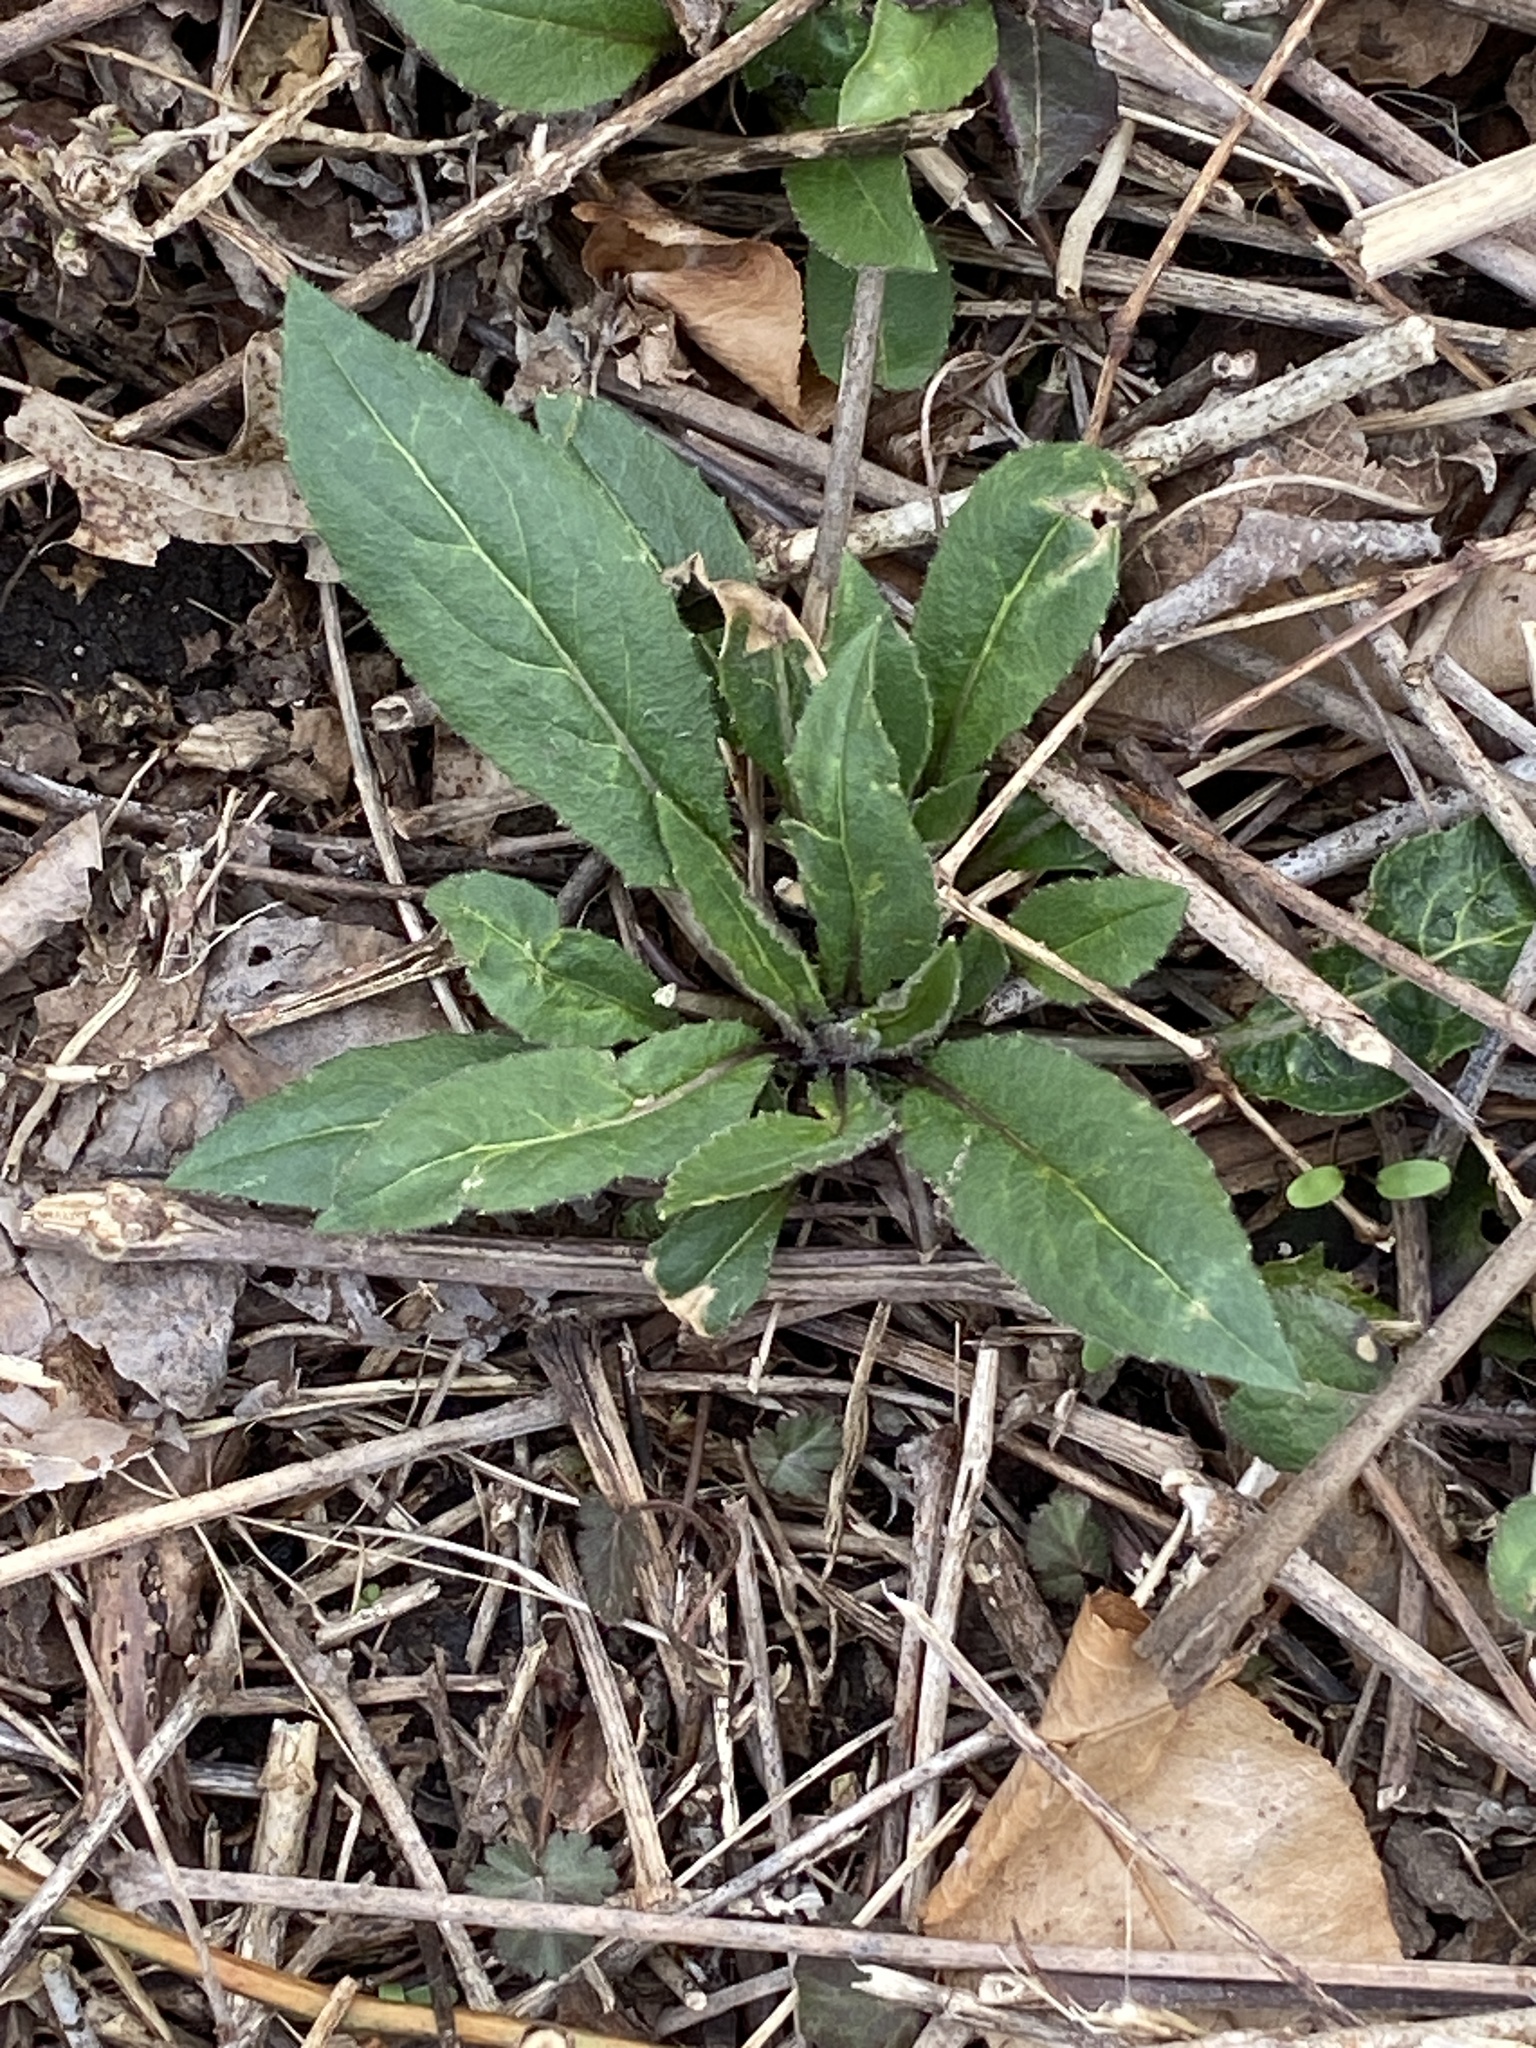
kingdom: Plantae
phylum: Tracheophyta
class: Magnoliopsida
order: Brassicales
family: Brassicaceae
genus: Hesperis
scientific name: Hesperis matronalis
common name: Dame's-violet
